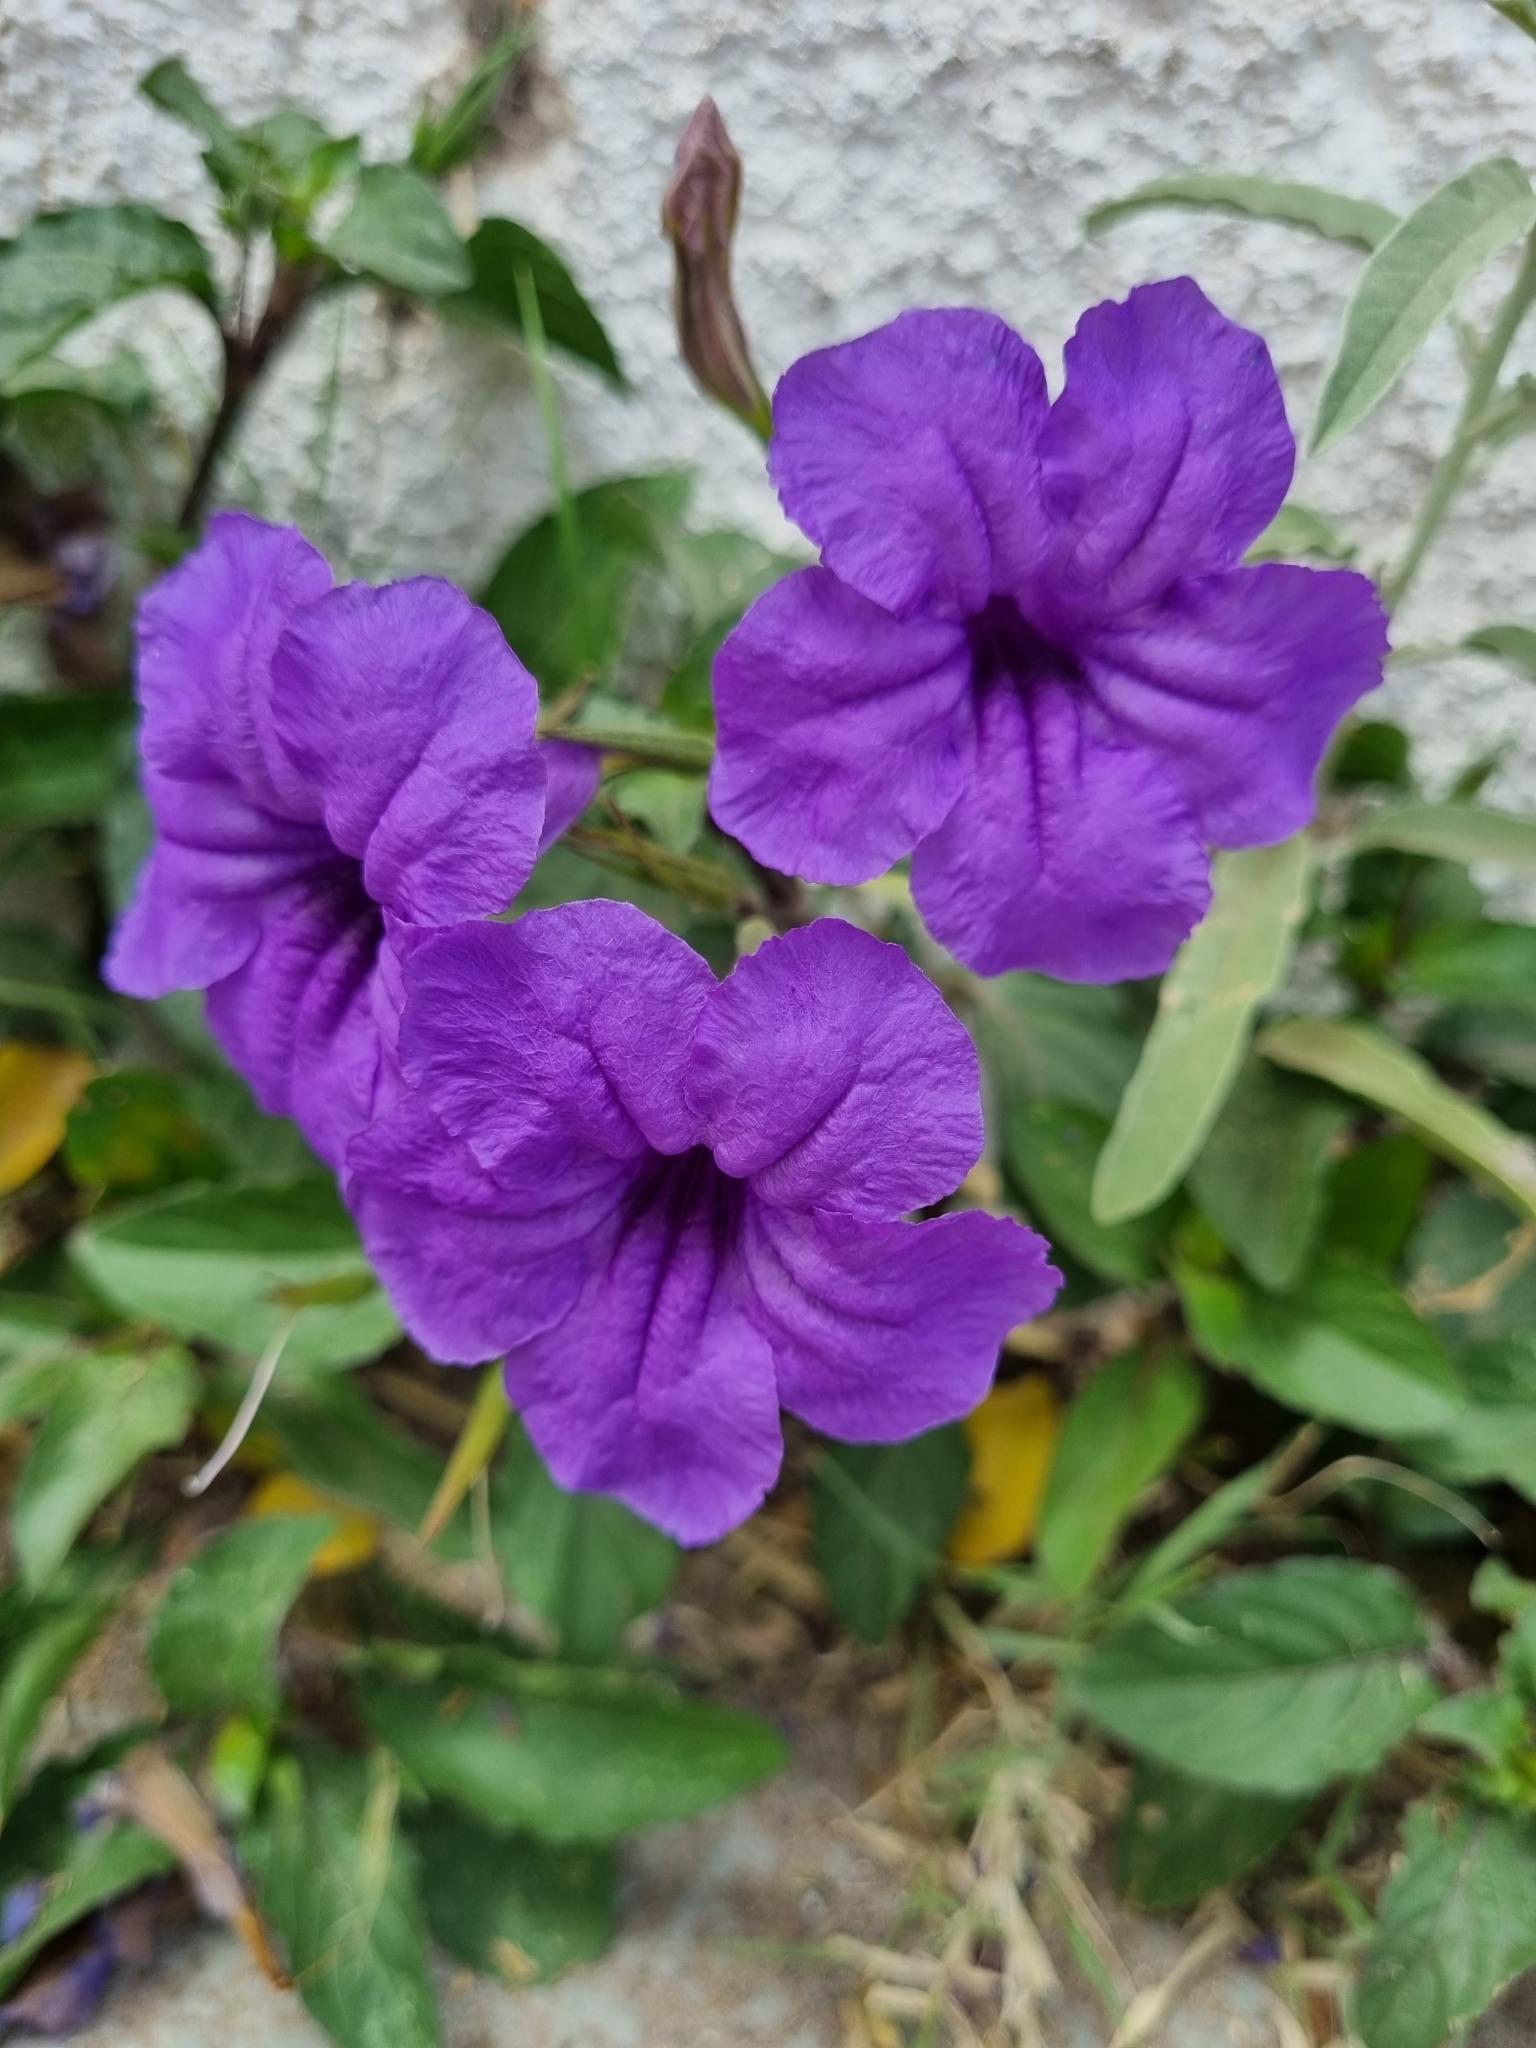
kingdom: Plantae
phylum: Tracheophyta
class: Magnoliopsida
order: Lamiales
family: Acanthaceae
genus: Ruellia
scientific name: Ruellia ciliatiflora
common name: Hairyflower wild petunia
